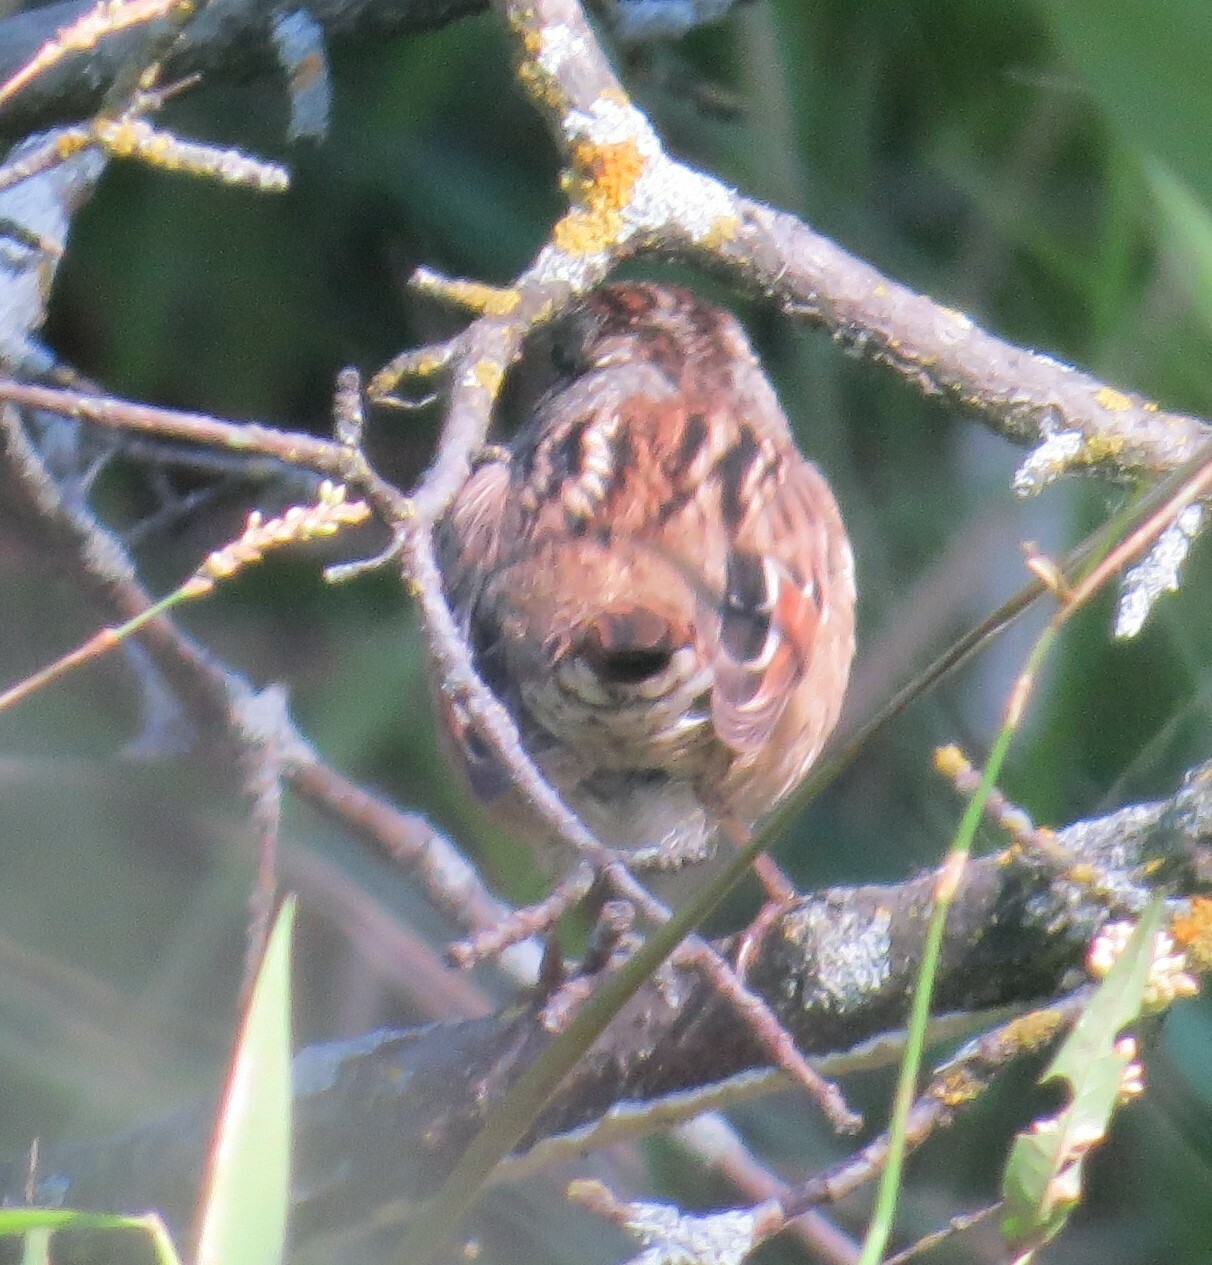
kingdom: Animalia
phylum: Chordata
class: Aves
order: Passeriformes
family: Passerellidae
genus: Melospiza
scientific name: Melospiza georgiana
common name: Swamp sparrow
